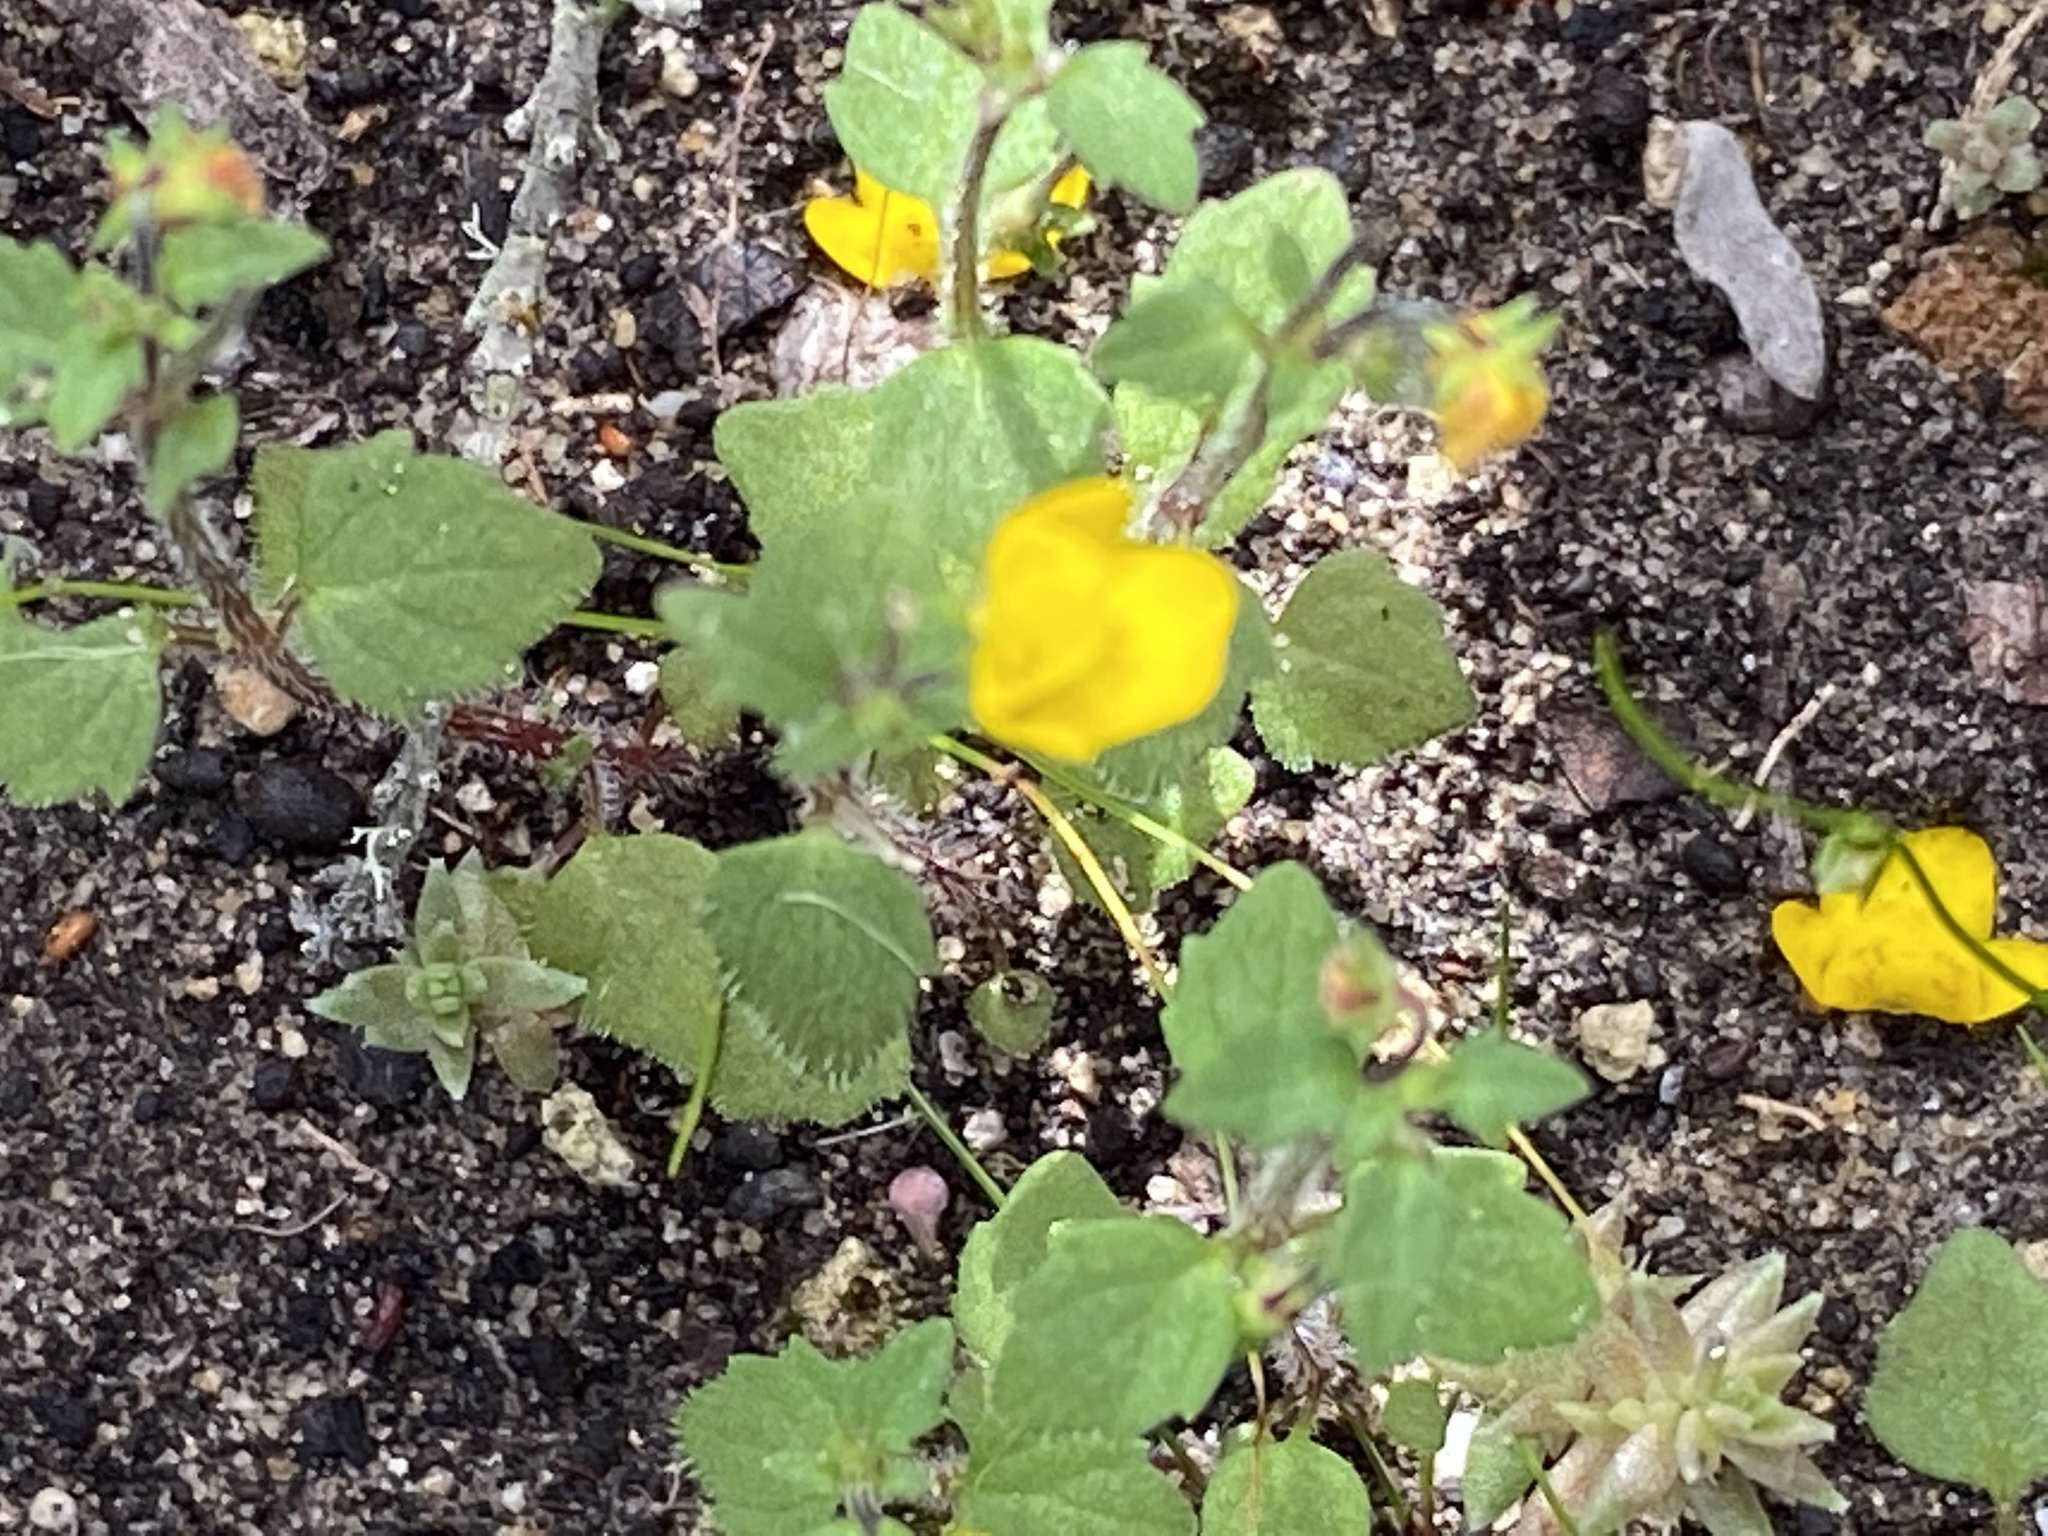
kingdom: Plantae
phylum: Tracheophyta
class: Magnoliopsida
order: Lamiales
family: Scrophulariaceae
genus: Hemimeris
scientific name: Hemimeris racemosa
